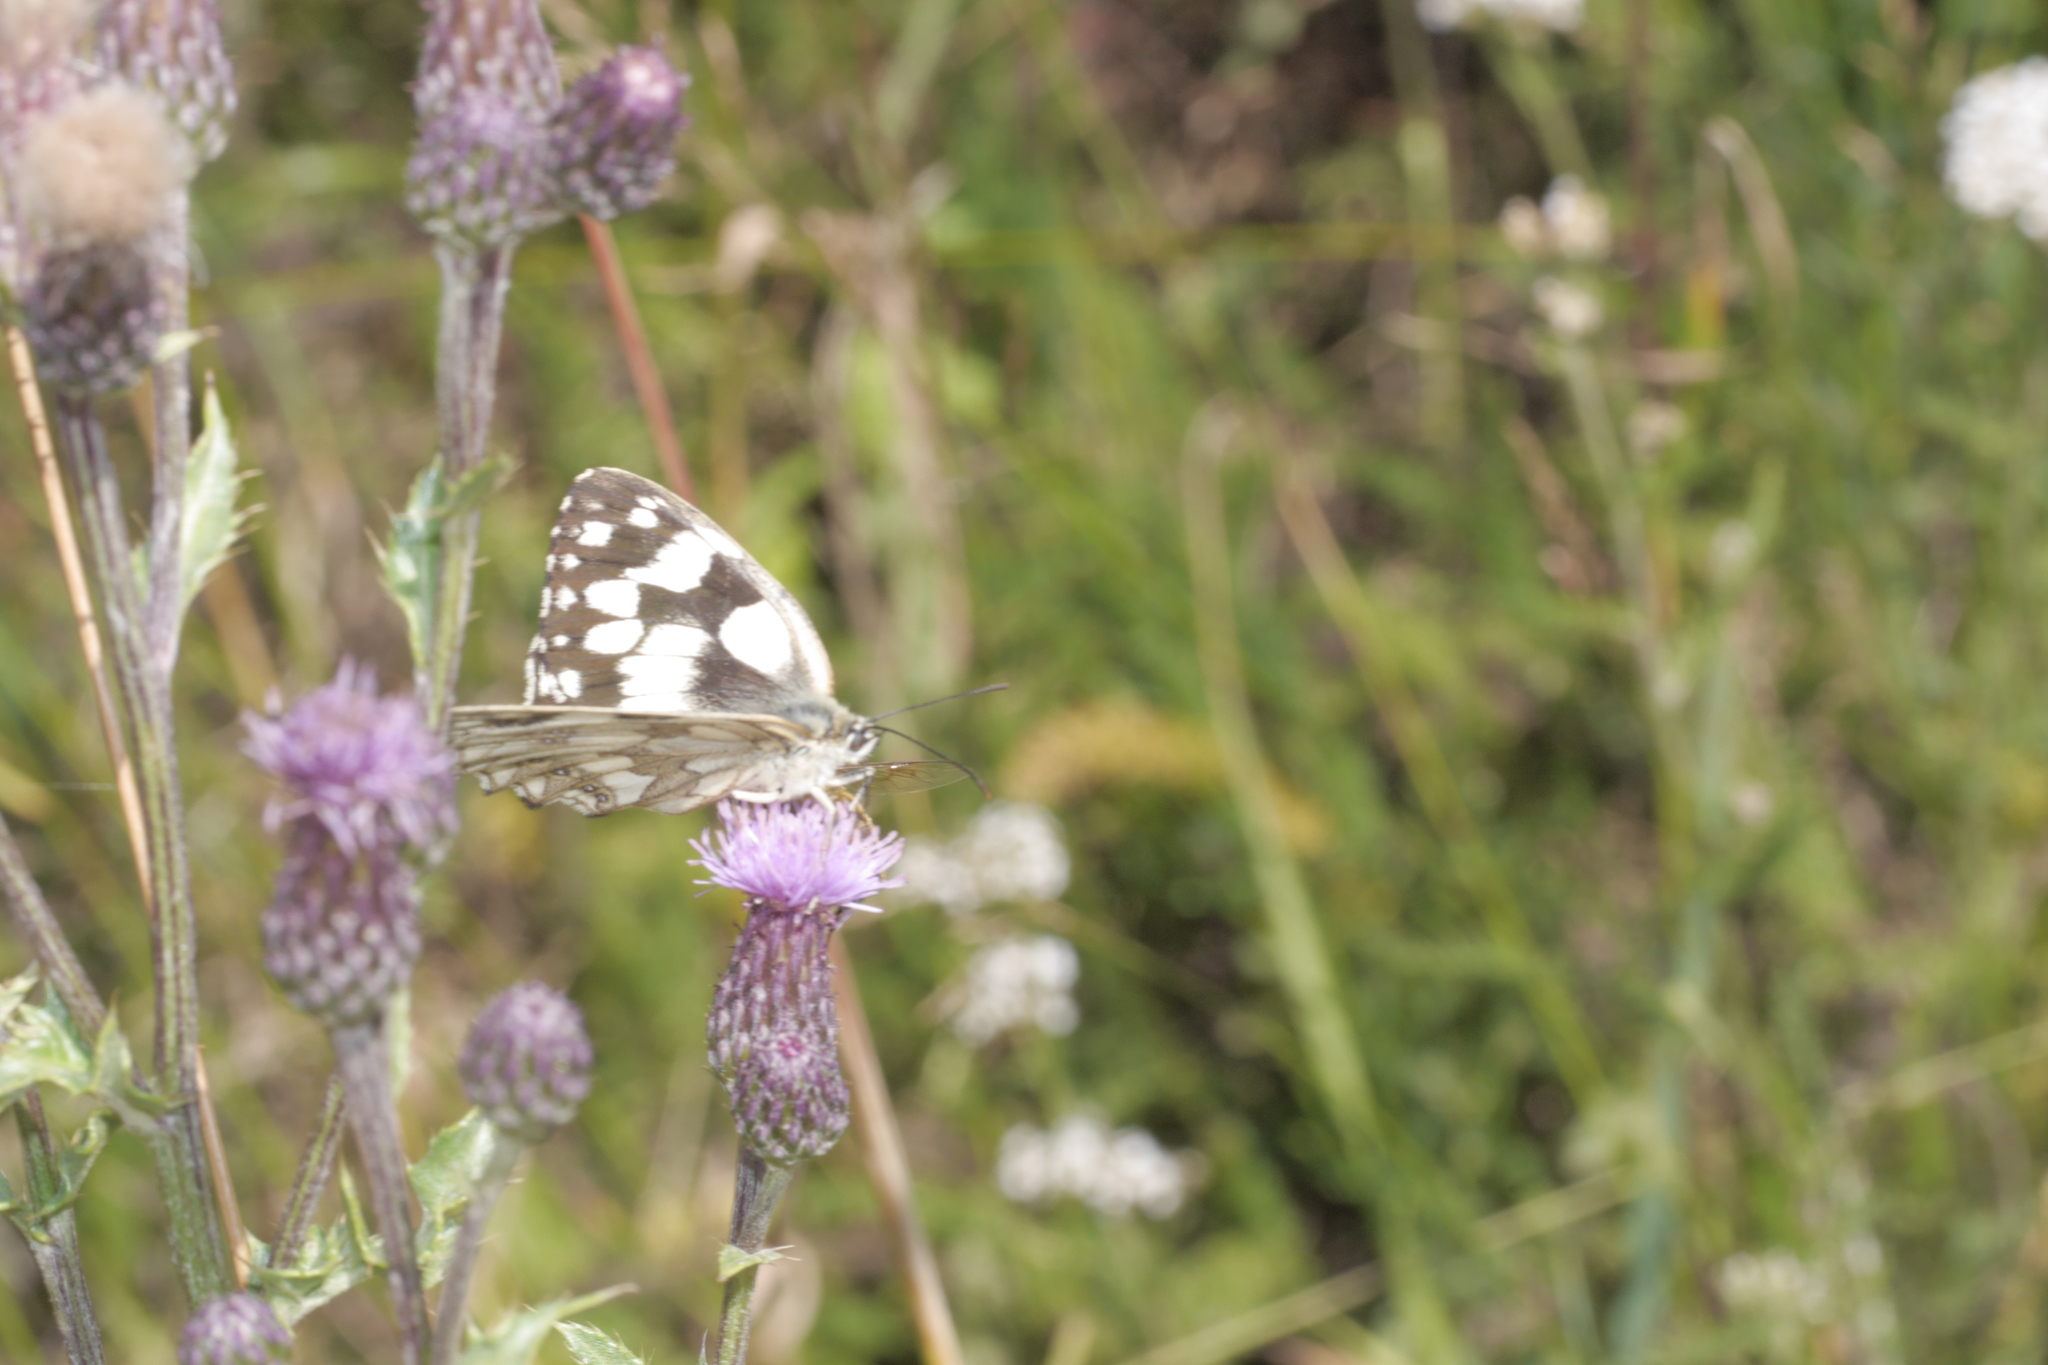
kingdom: Animalia
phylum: Arthropoda
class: Insecta
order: Lepidoptera
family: Nymphalidae
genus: Melanargia
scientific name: Melanargia galathea
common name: Marbled white
